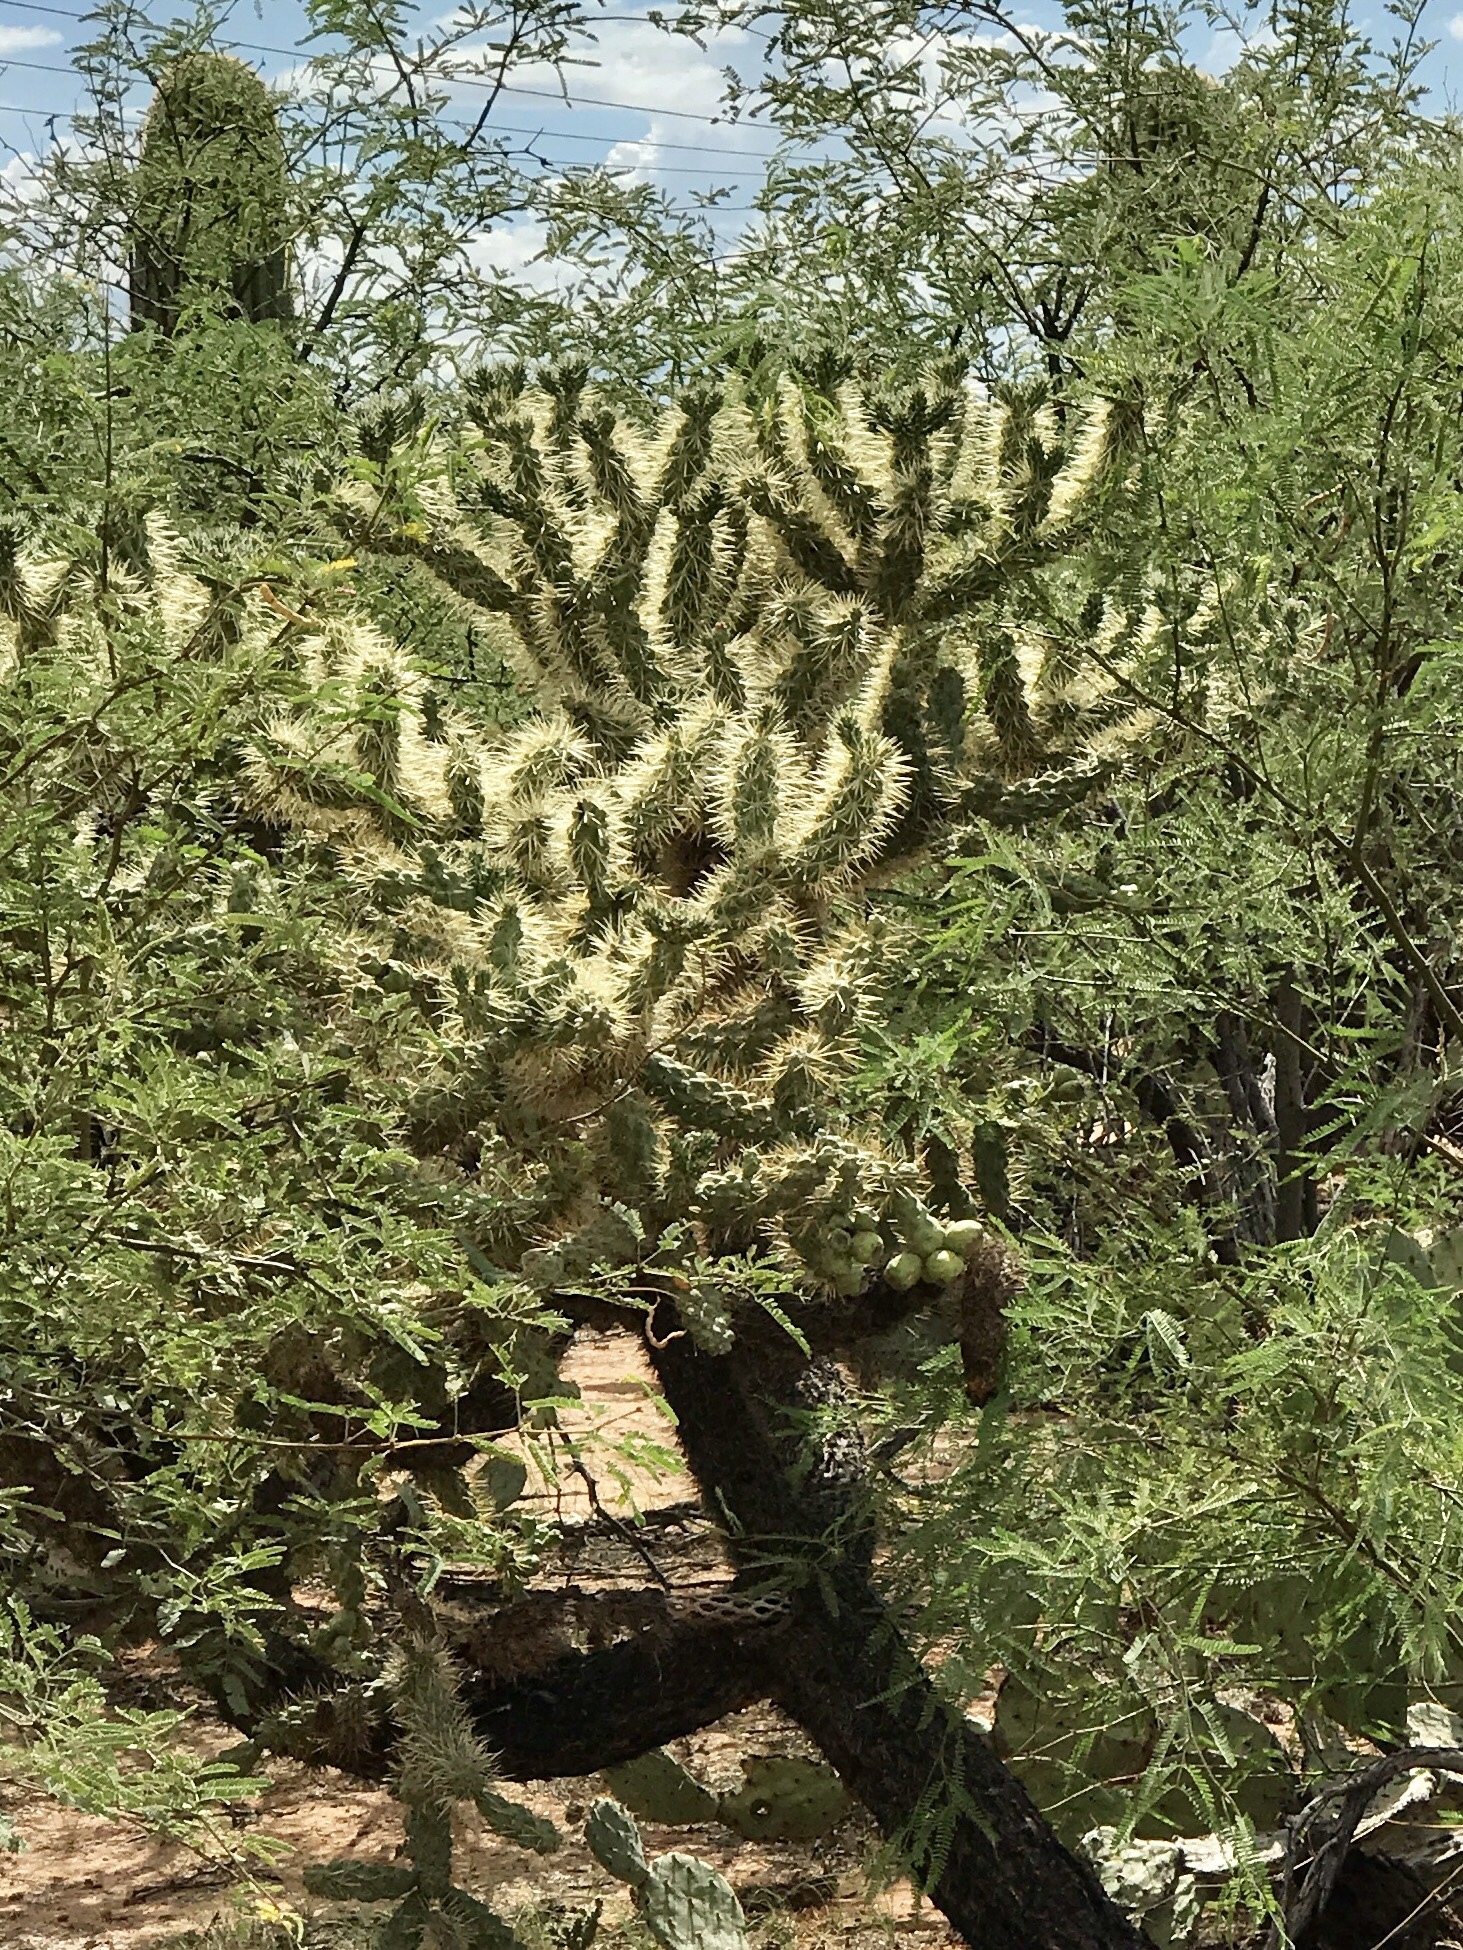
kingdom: Plantae
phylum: Tracheophyta
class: Magnoliopsida
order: Caryophyllales
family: Cactaceae
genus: Cylindropuntia
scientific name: Cylindropuntia fulgida
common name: Jumping cholla
